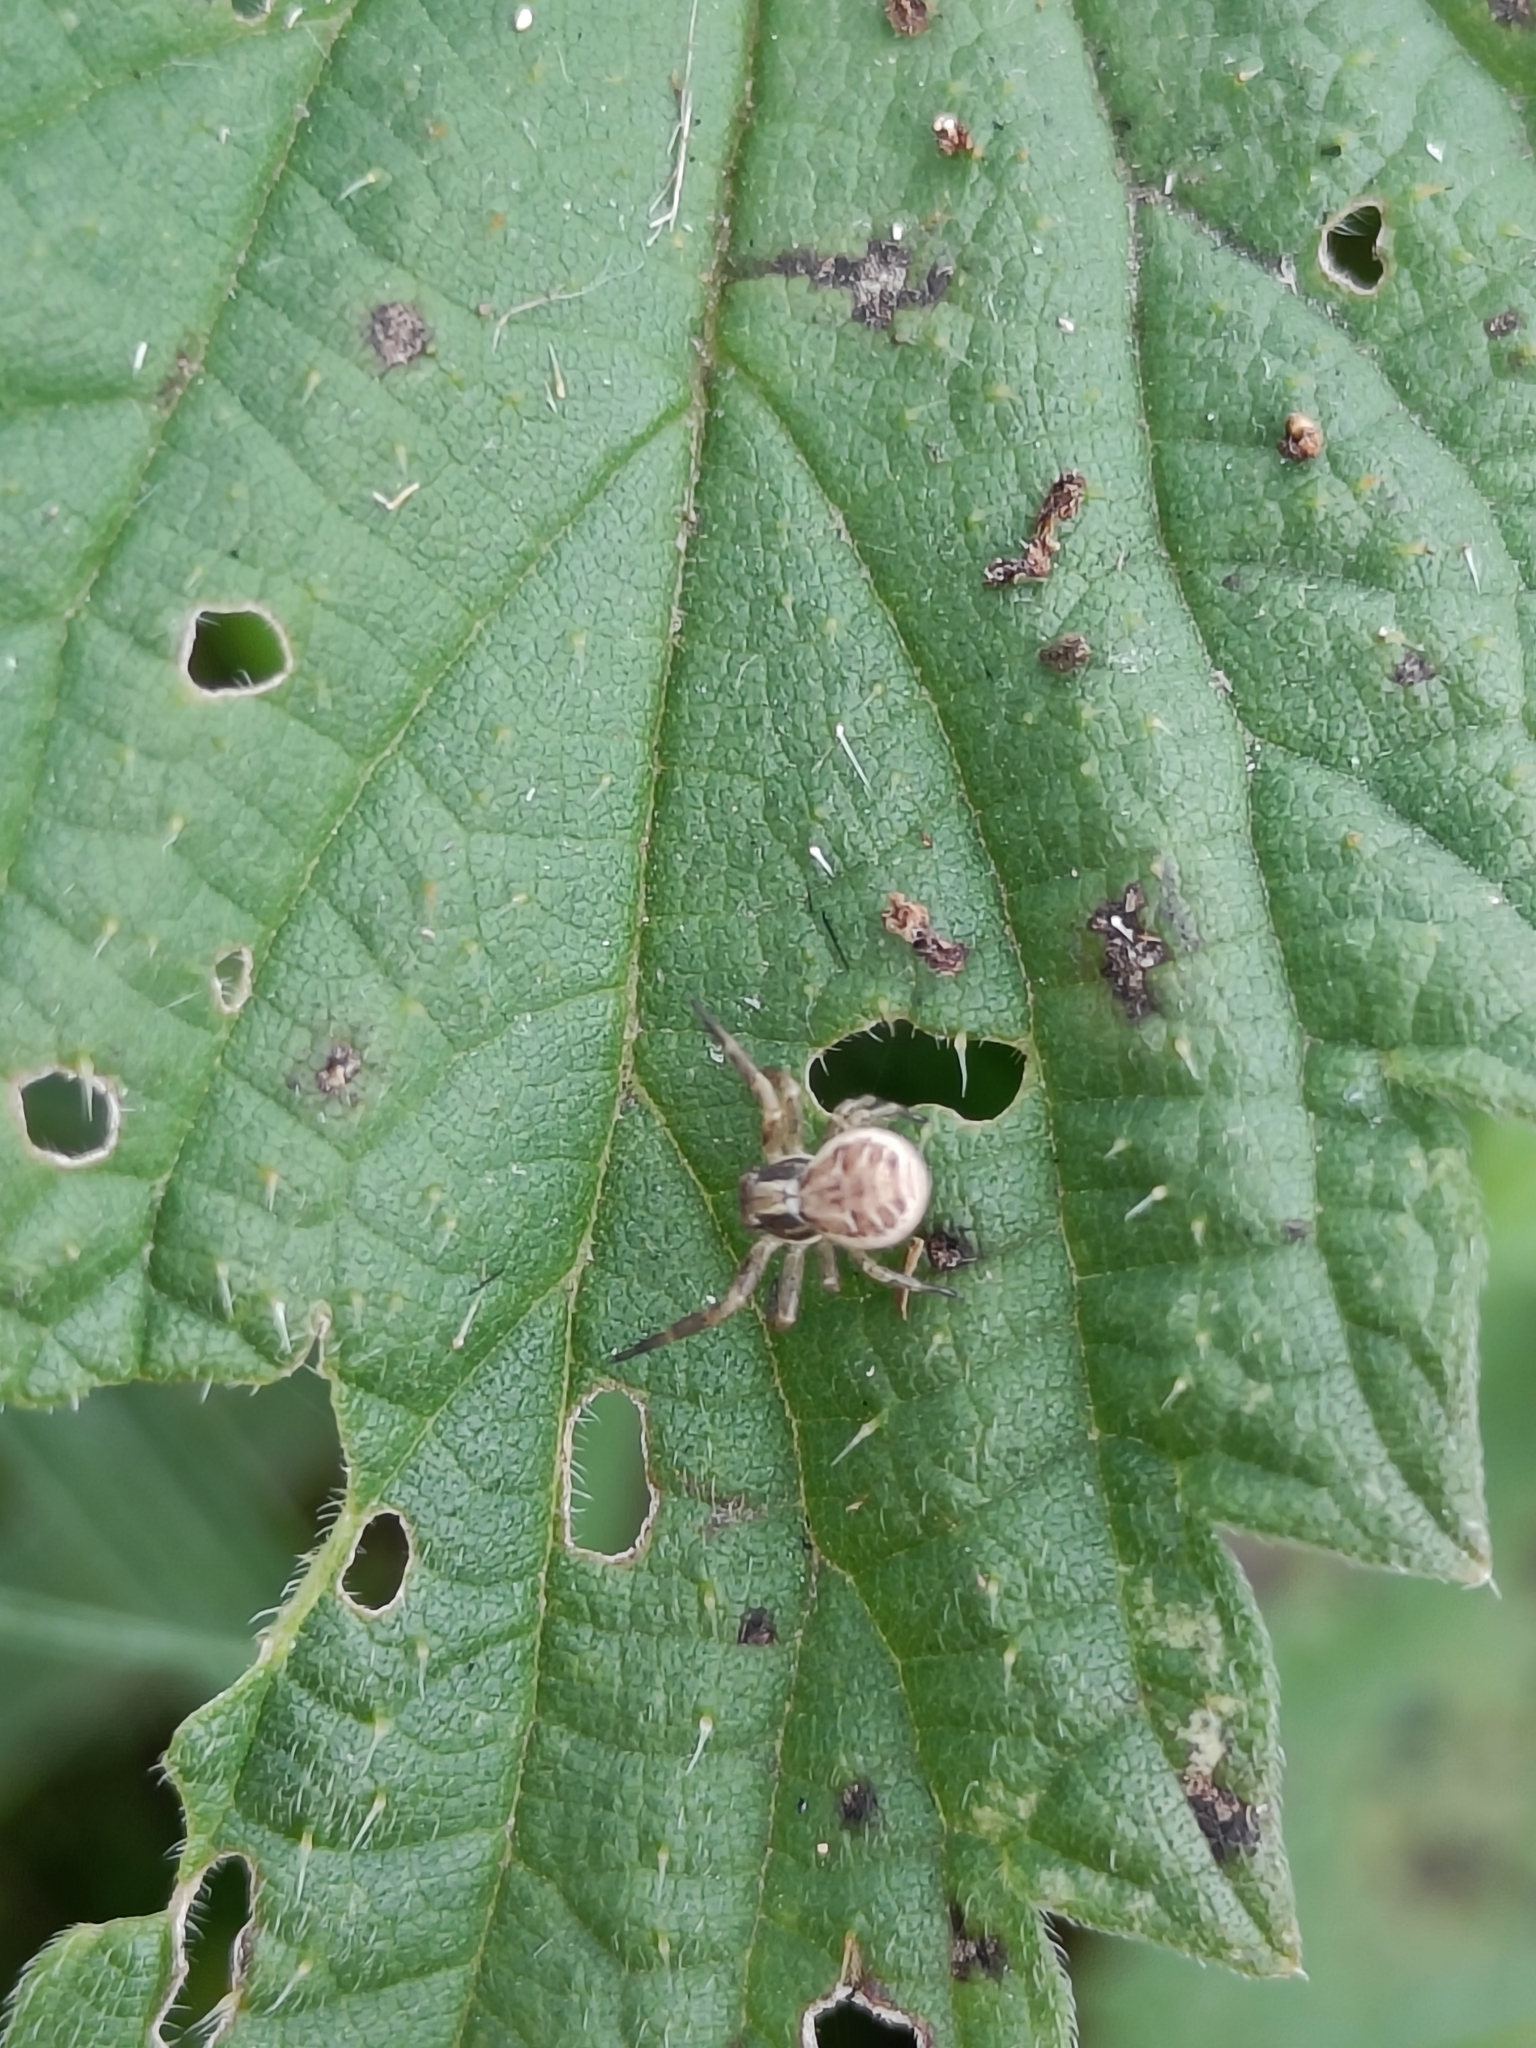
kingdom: Animalia
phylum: Arthropoda
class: Arachnida
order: Araneae
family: Thomisidae
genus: Xysticus
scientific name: Xysticus
